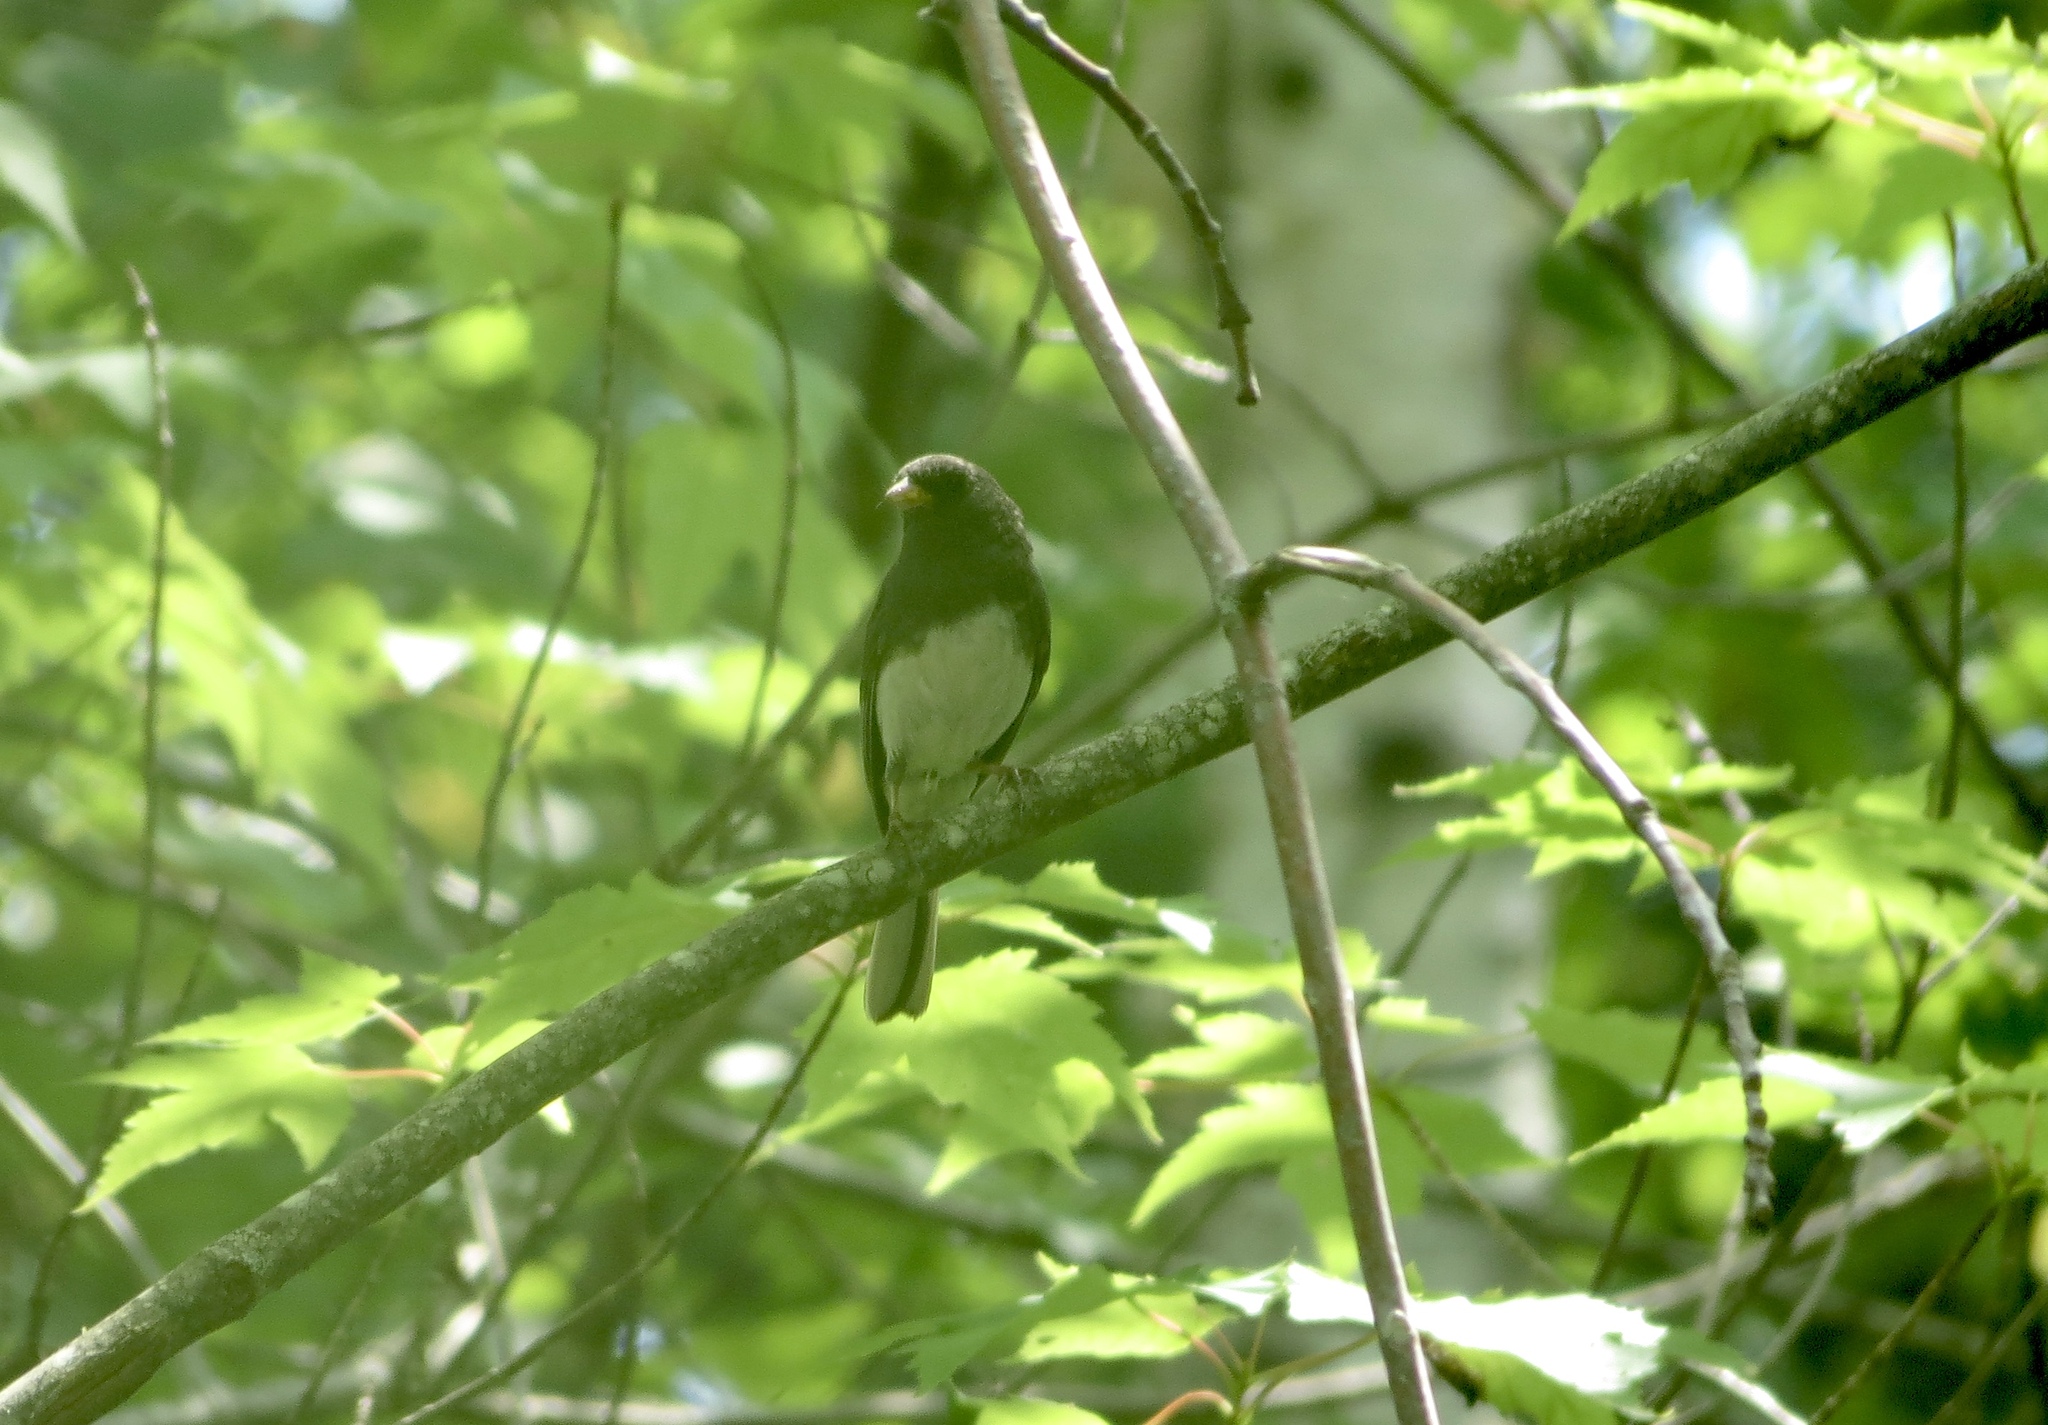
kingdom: Animalia
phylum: Chordata
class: Aves
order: Passeriformes
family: Passerellidae
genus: Junco
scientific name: Junco hyemalis
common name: Dark-eyed junco
